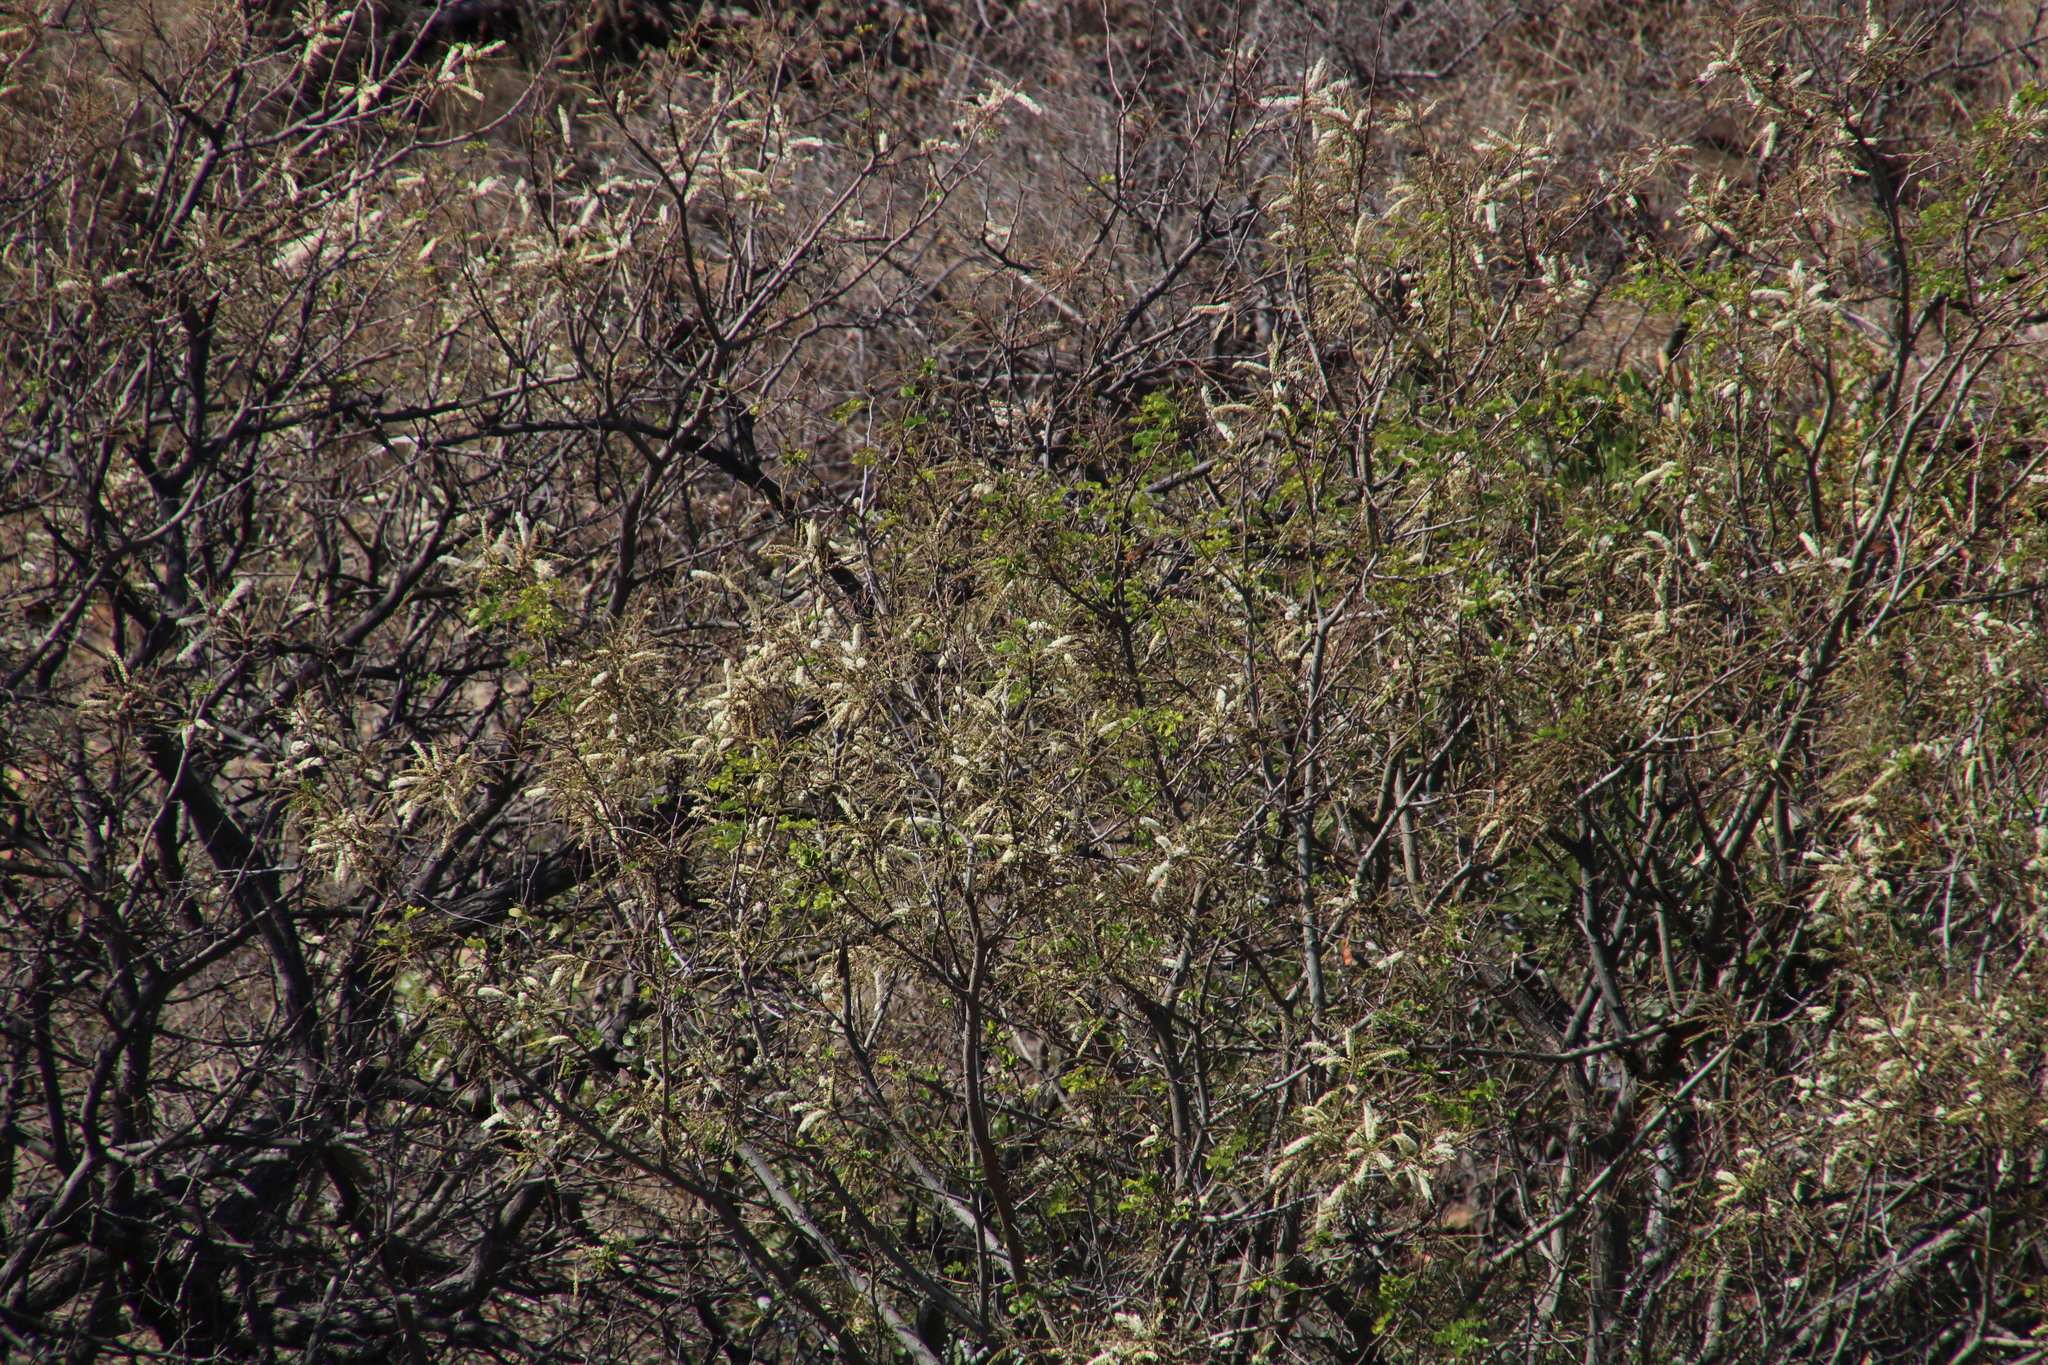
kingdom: Plantae
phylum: Tracheophyta
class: Magnoliopsida
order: Fabales
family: Fabaceae
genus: Senegalia
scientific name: Senegalia nigrescens
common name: Knobthorn
